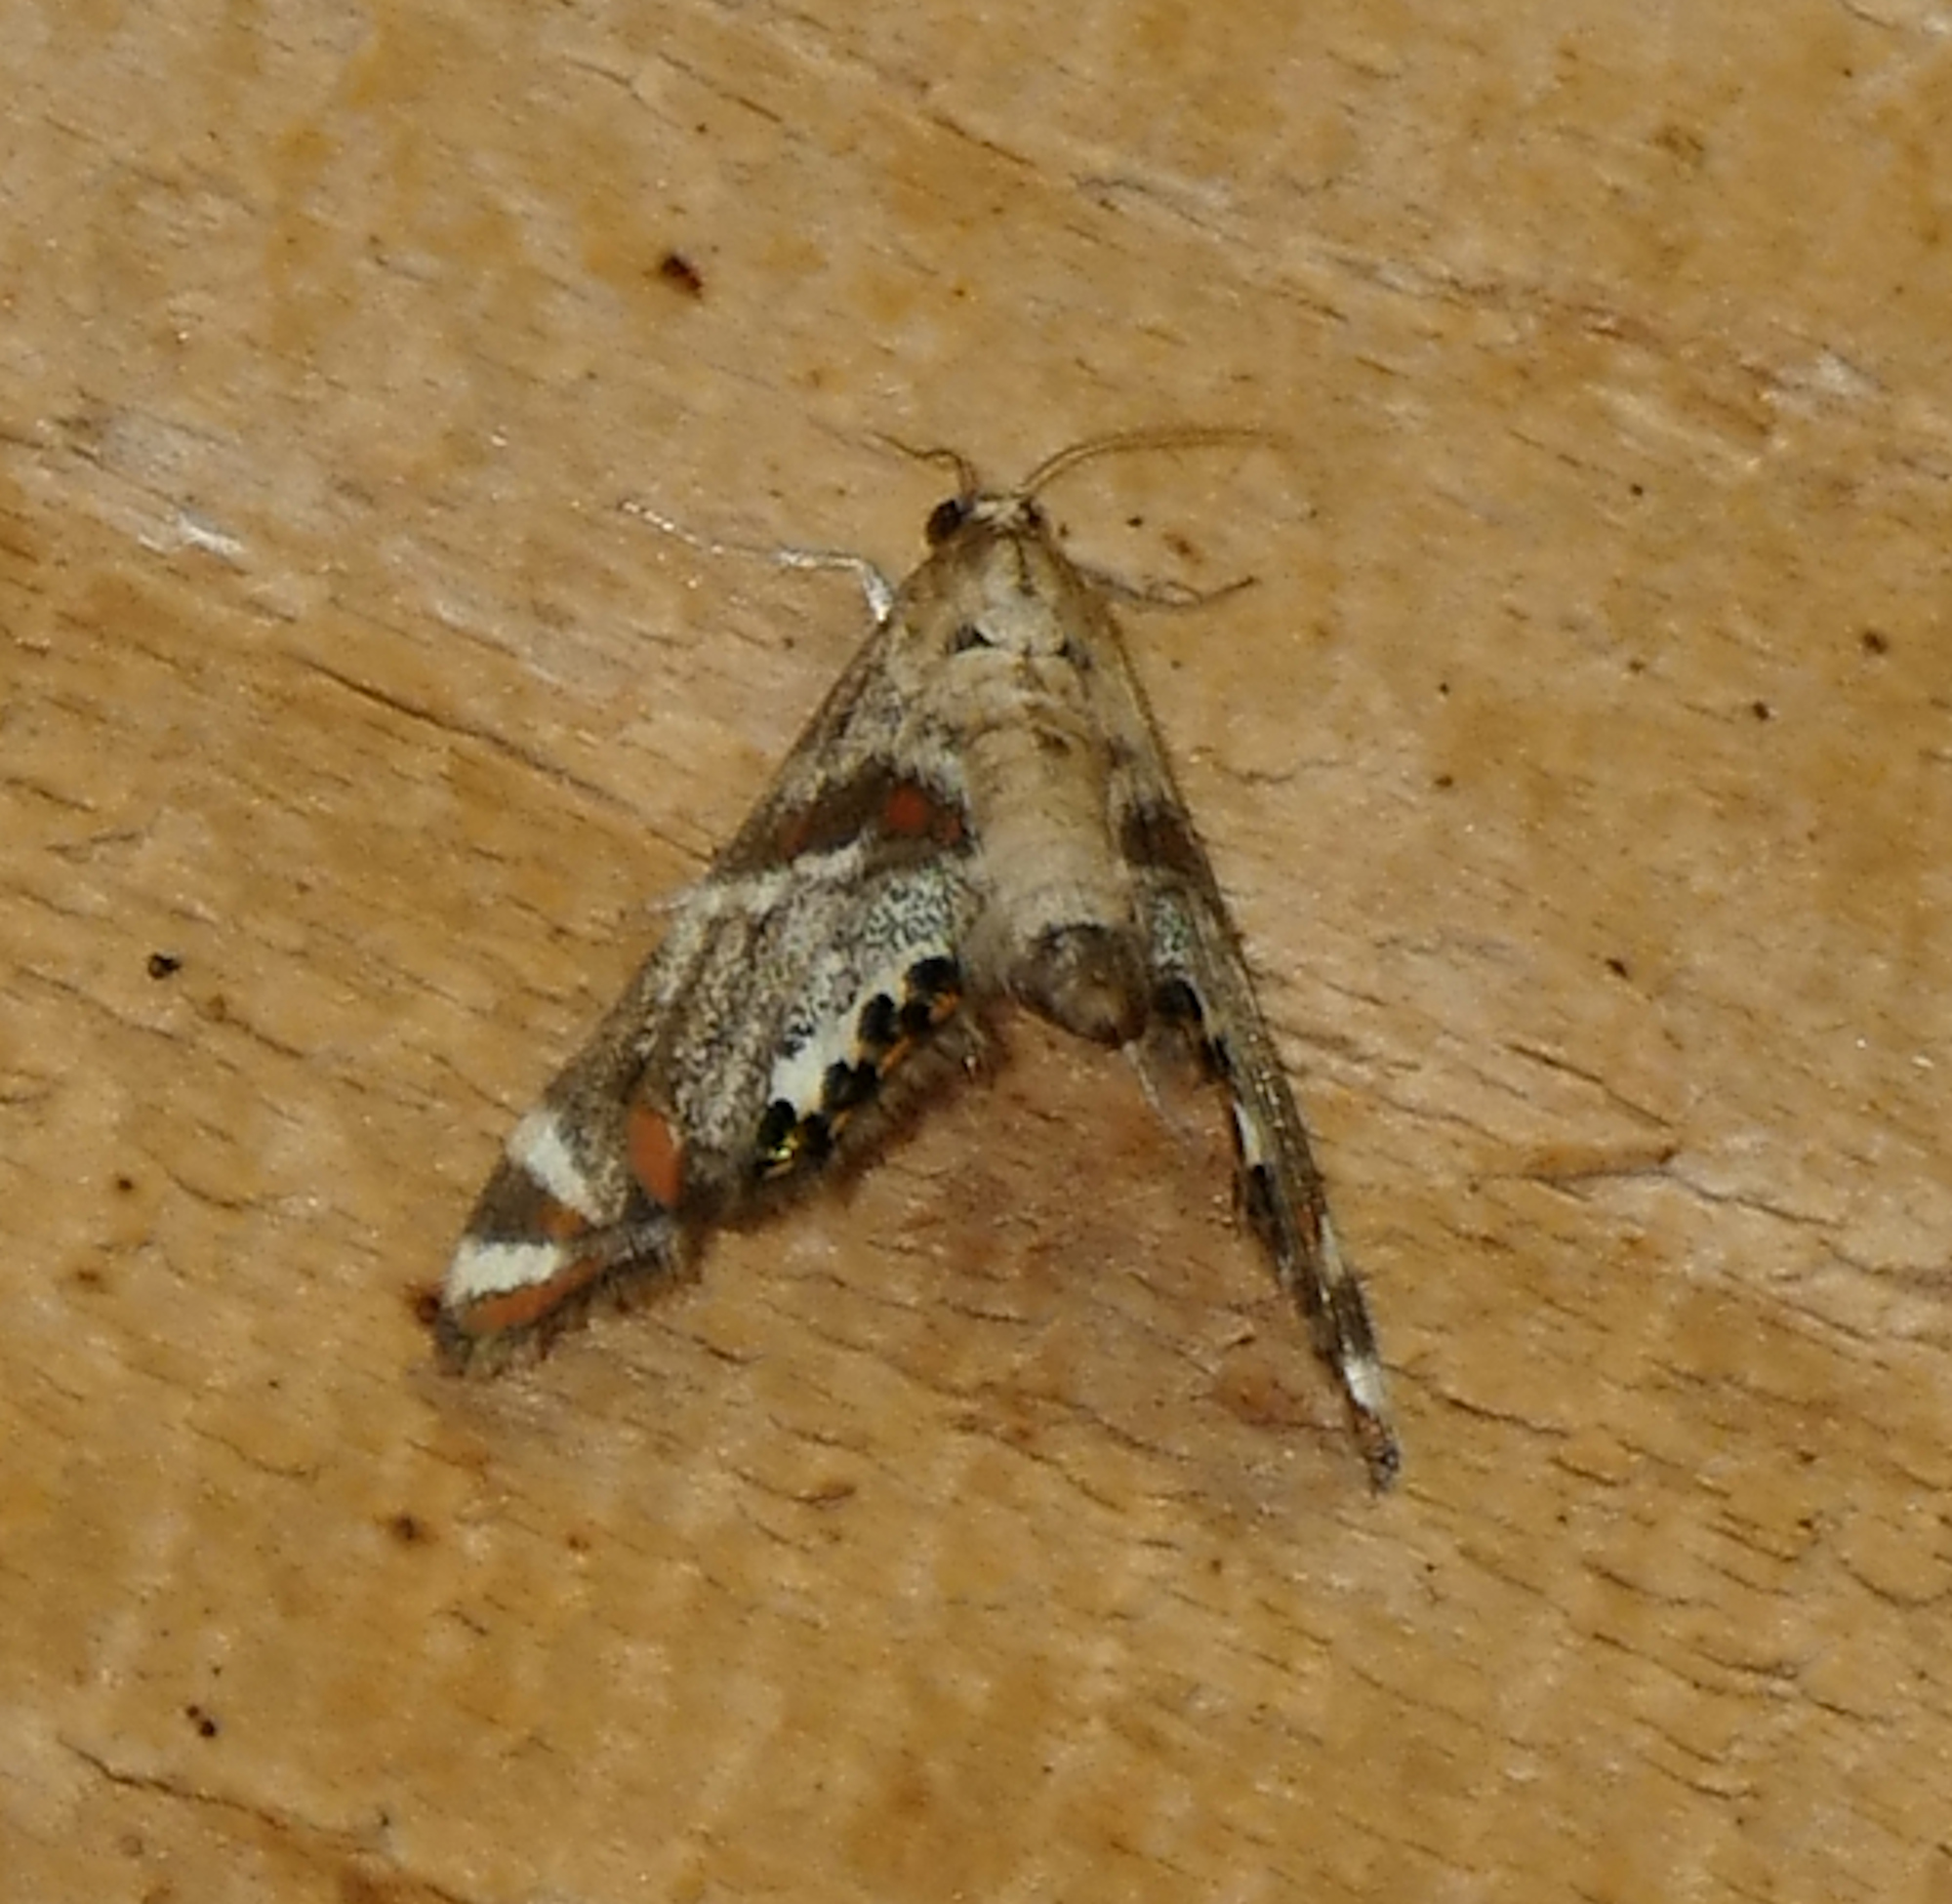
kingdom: Animalia
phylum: Arthropoda
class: Insecta
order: Lepidoptera
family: Crambidae
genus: Petrophila
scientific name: Petrophila jaliscalis
